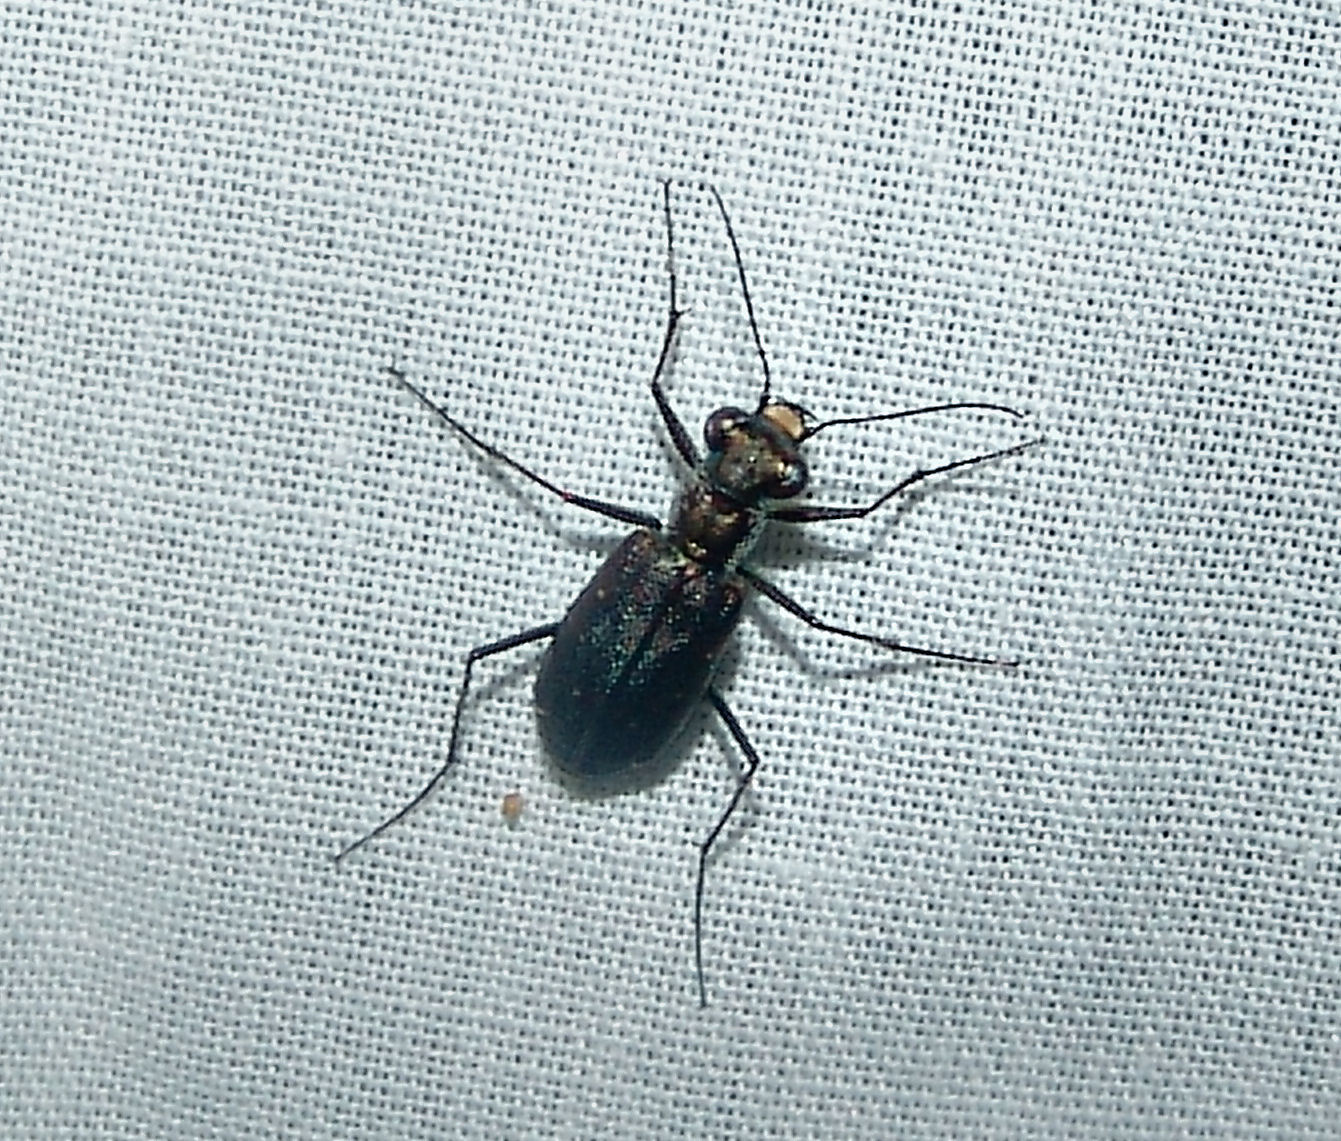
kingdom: Animalia
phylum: Arthropoda
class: Insecta
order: Coleoptera
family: Carabidae
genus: Cicindela
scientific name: Cicindela punctulata
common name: Punctured tiger beetle
